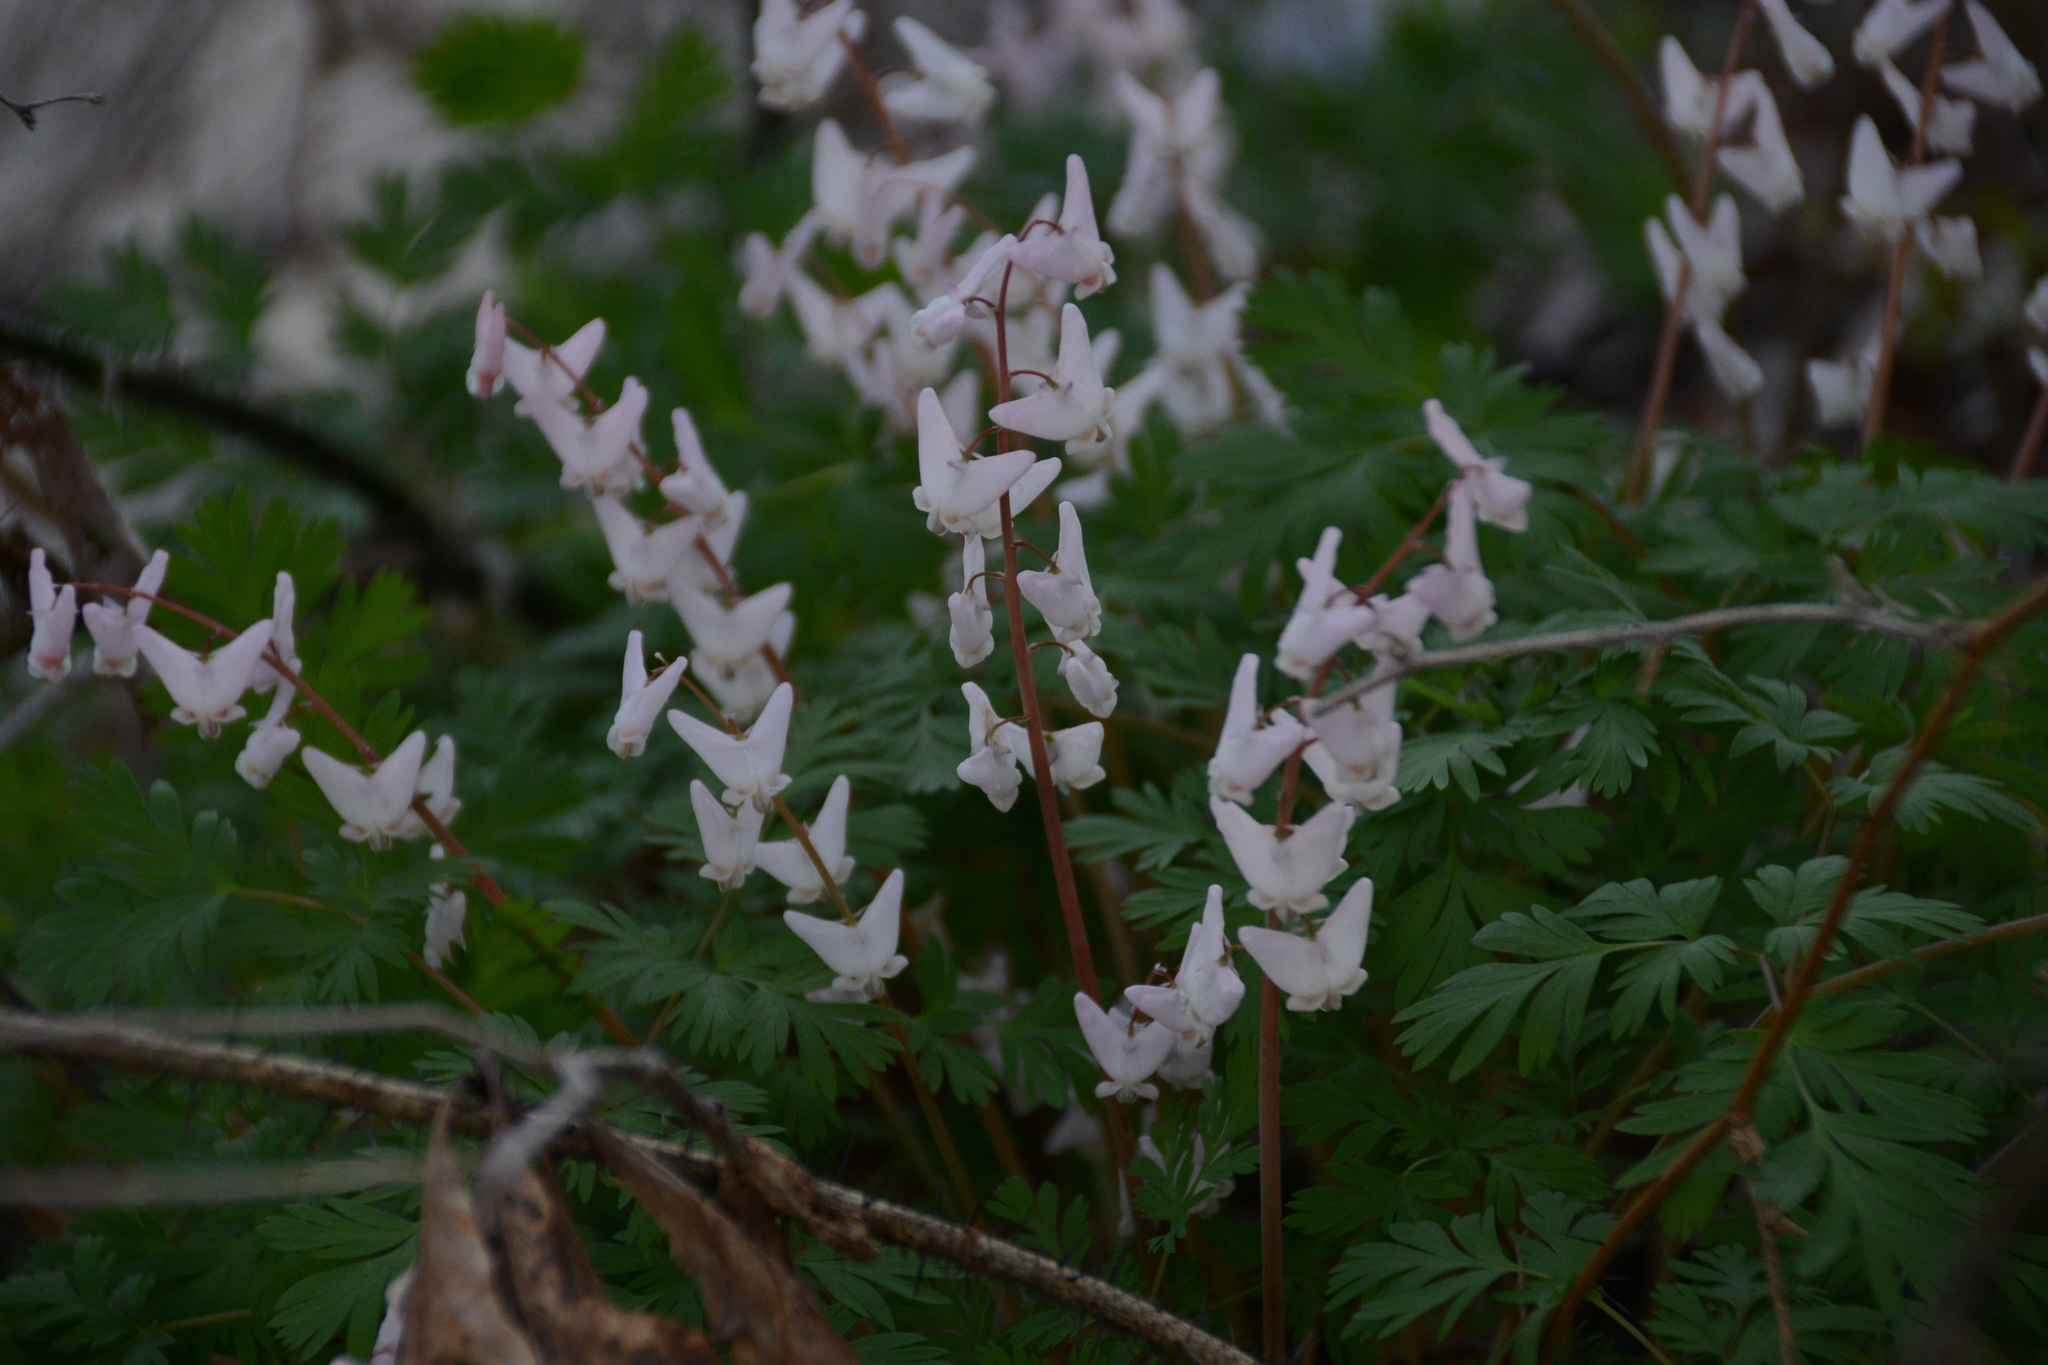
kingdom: Plantae
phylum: Tracheophyta
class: Magnoliopsida
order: Ranunculales
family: Papaveraceae
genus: Dicentra
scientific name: Dicentra cucullaria
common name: Dutchman's breeches
